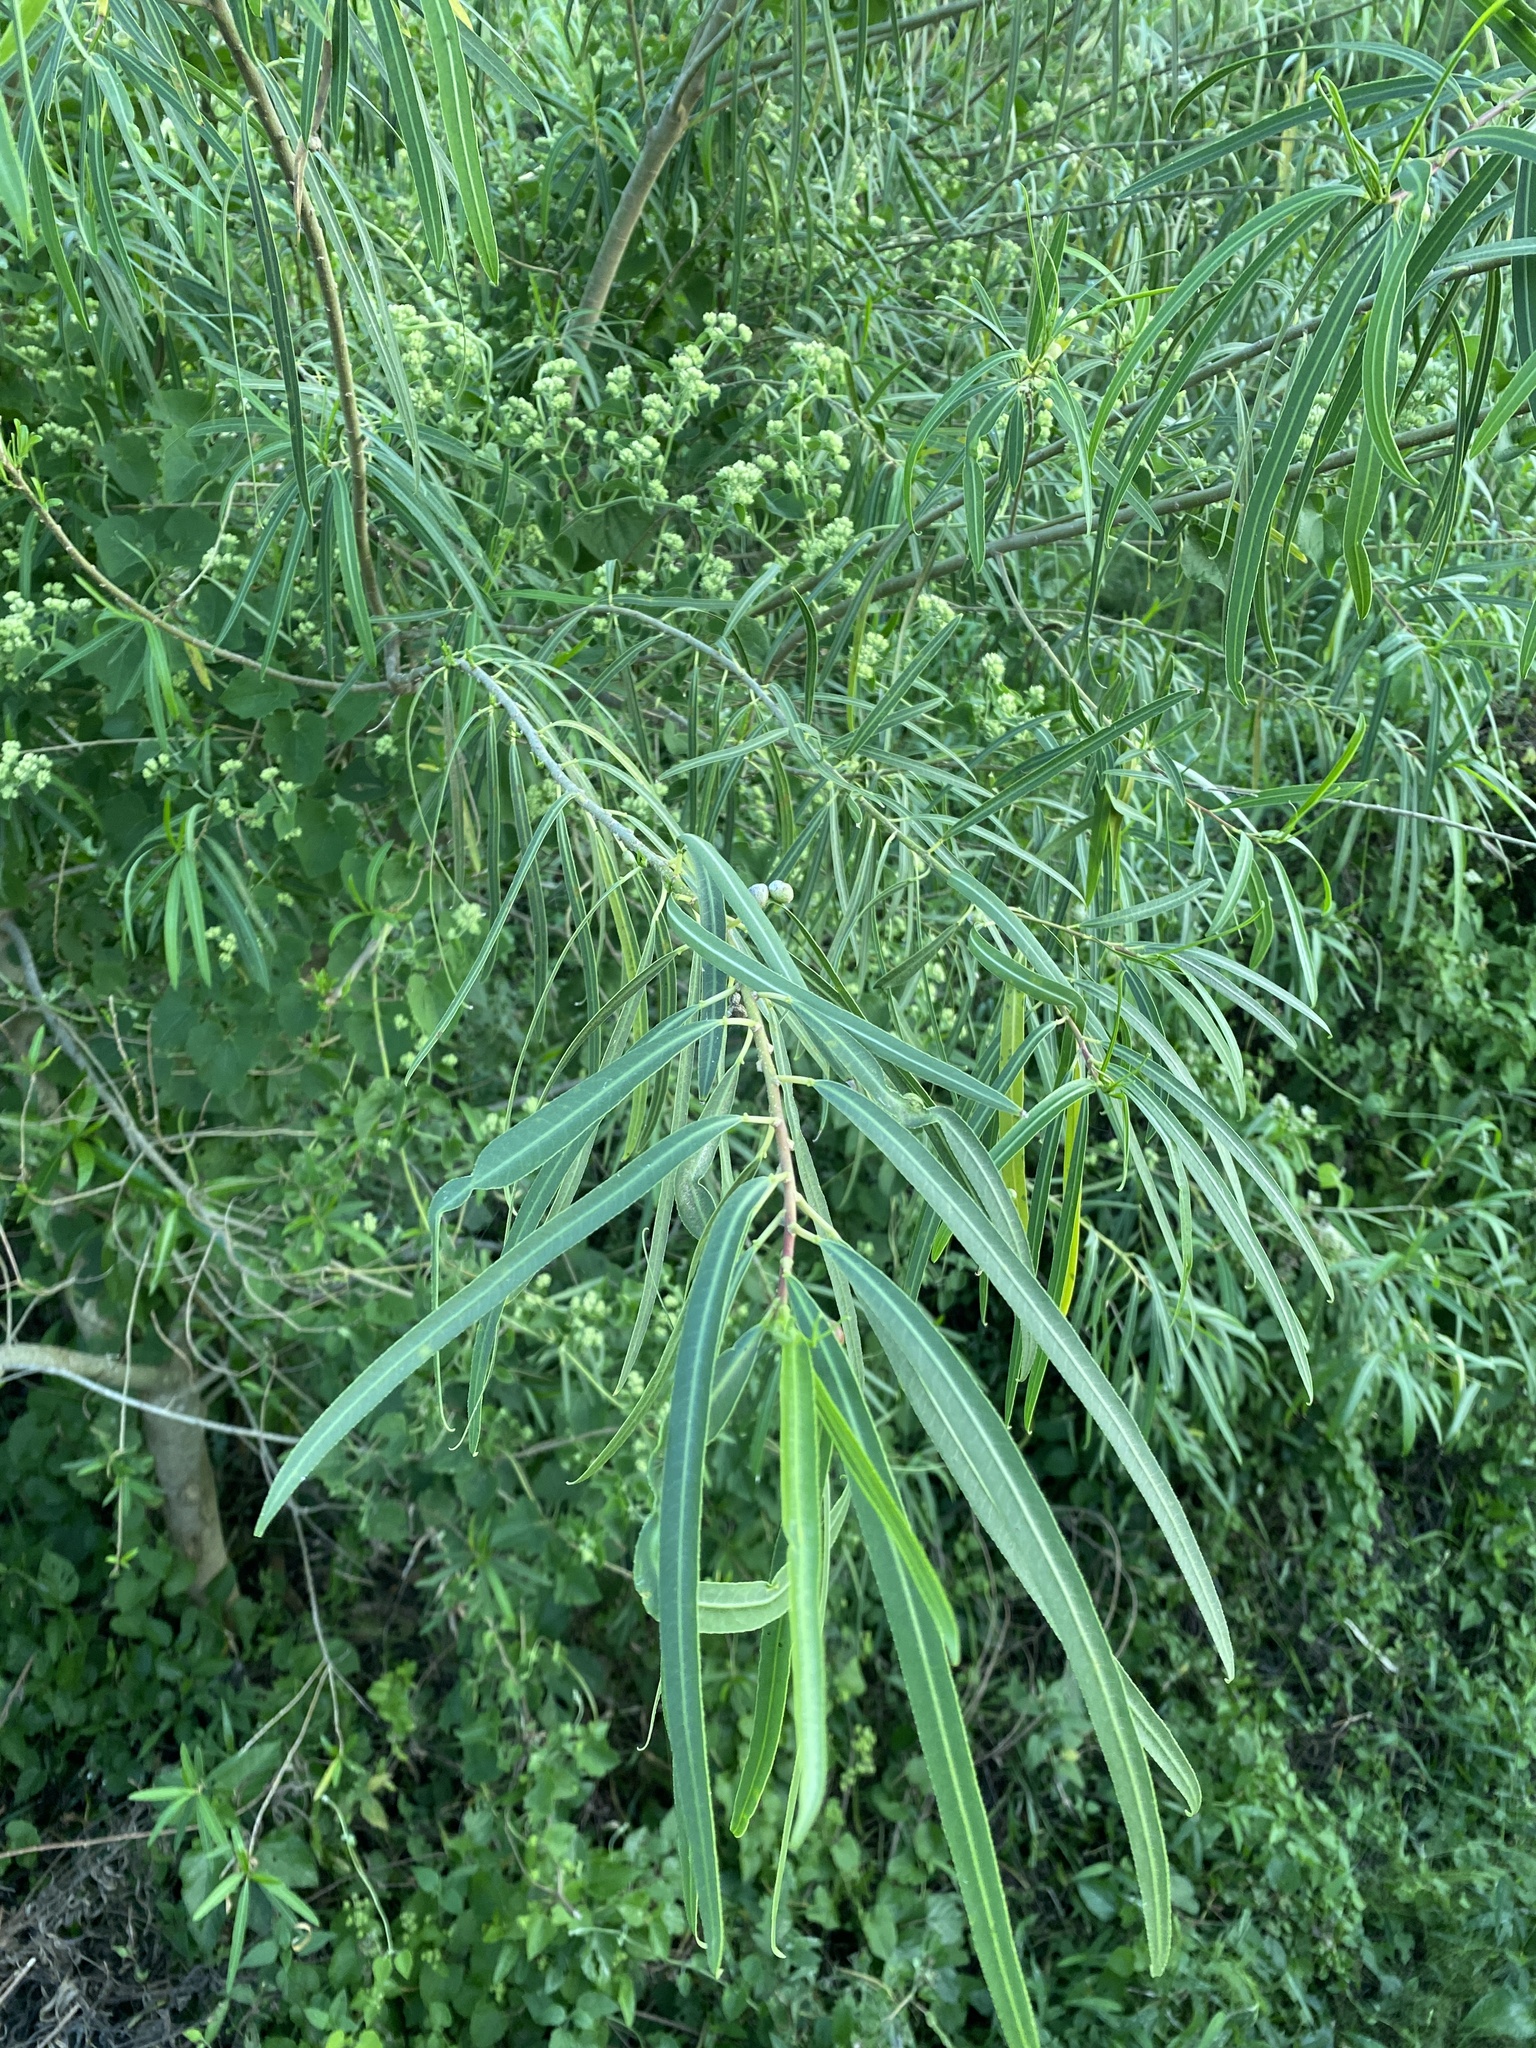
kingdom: Plantae
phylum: Tracheophyta
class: Magnoliopsida
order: Malpighiales
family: Euphorbiaceae
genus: Sapium
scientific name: Sapium haematospermum
